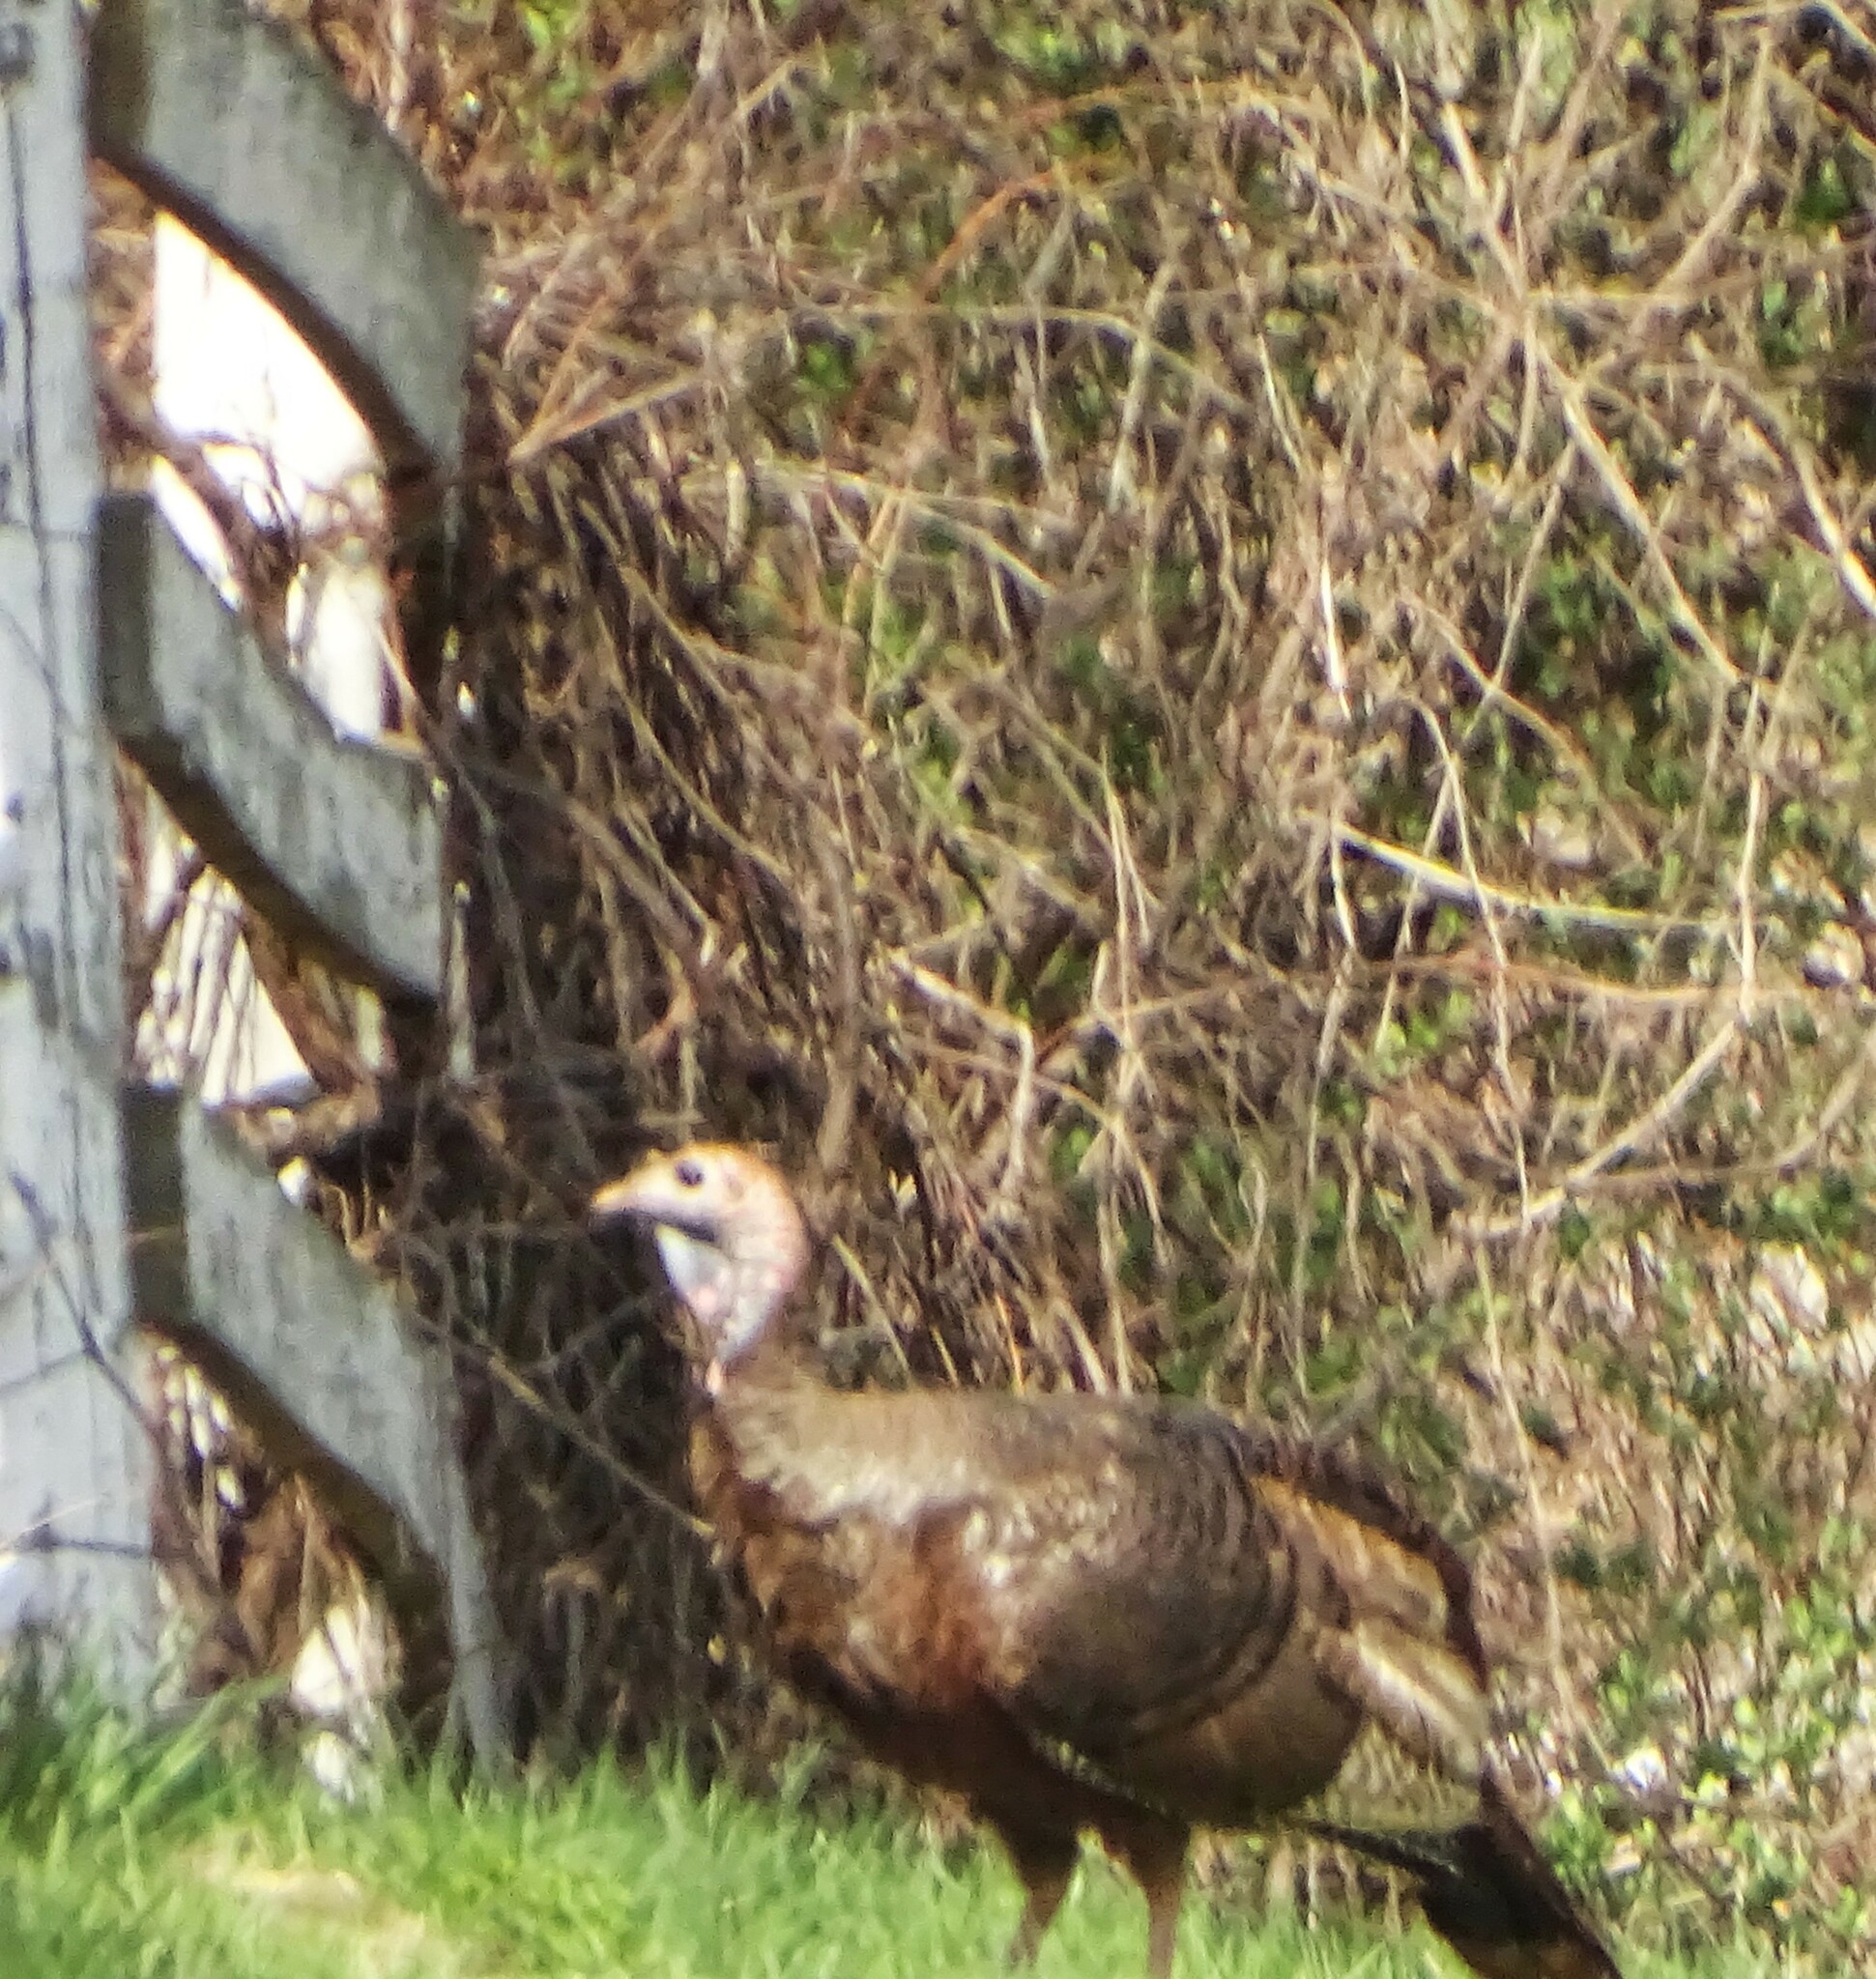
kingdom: Animalia
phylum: Chordata
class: Aves
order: Galliformes
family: Phasianidae
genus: Meleagris
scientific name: Meleagris gallopavo
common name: Wild turkey
